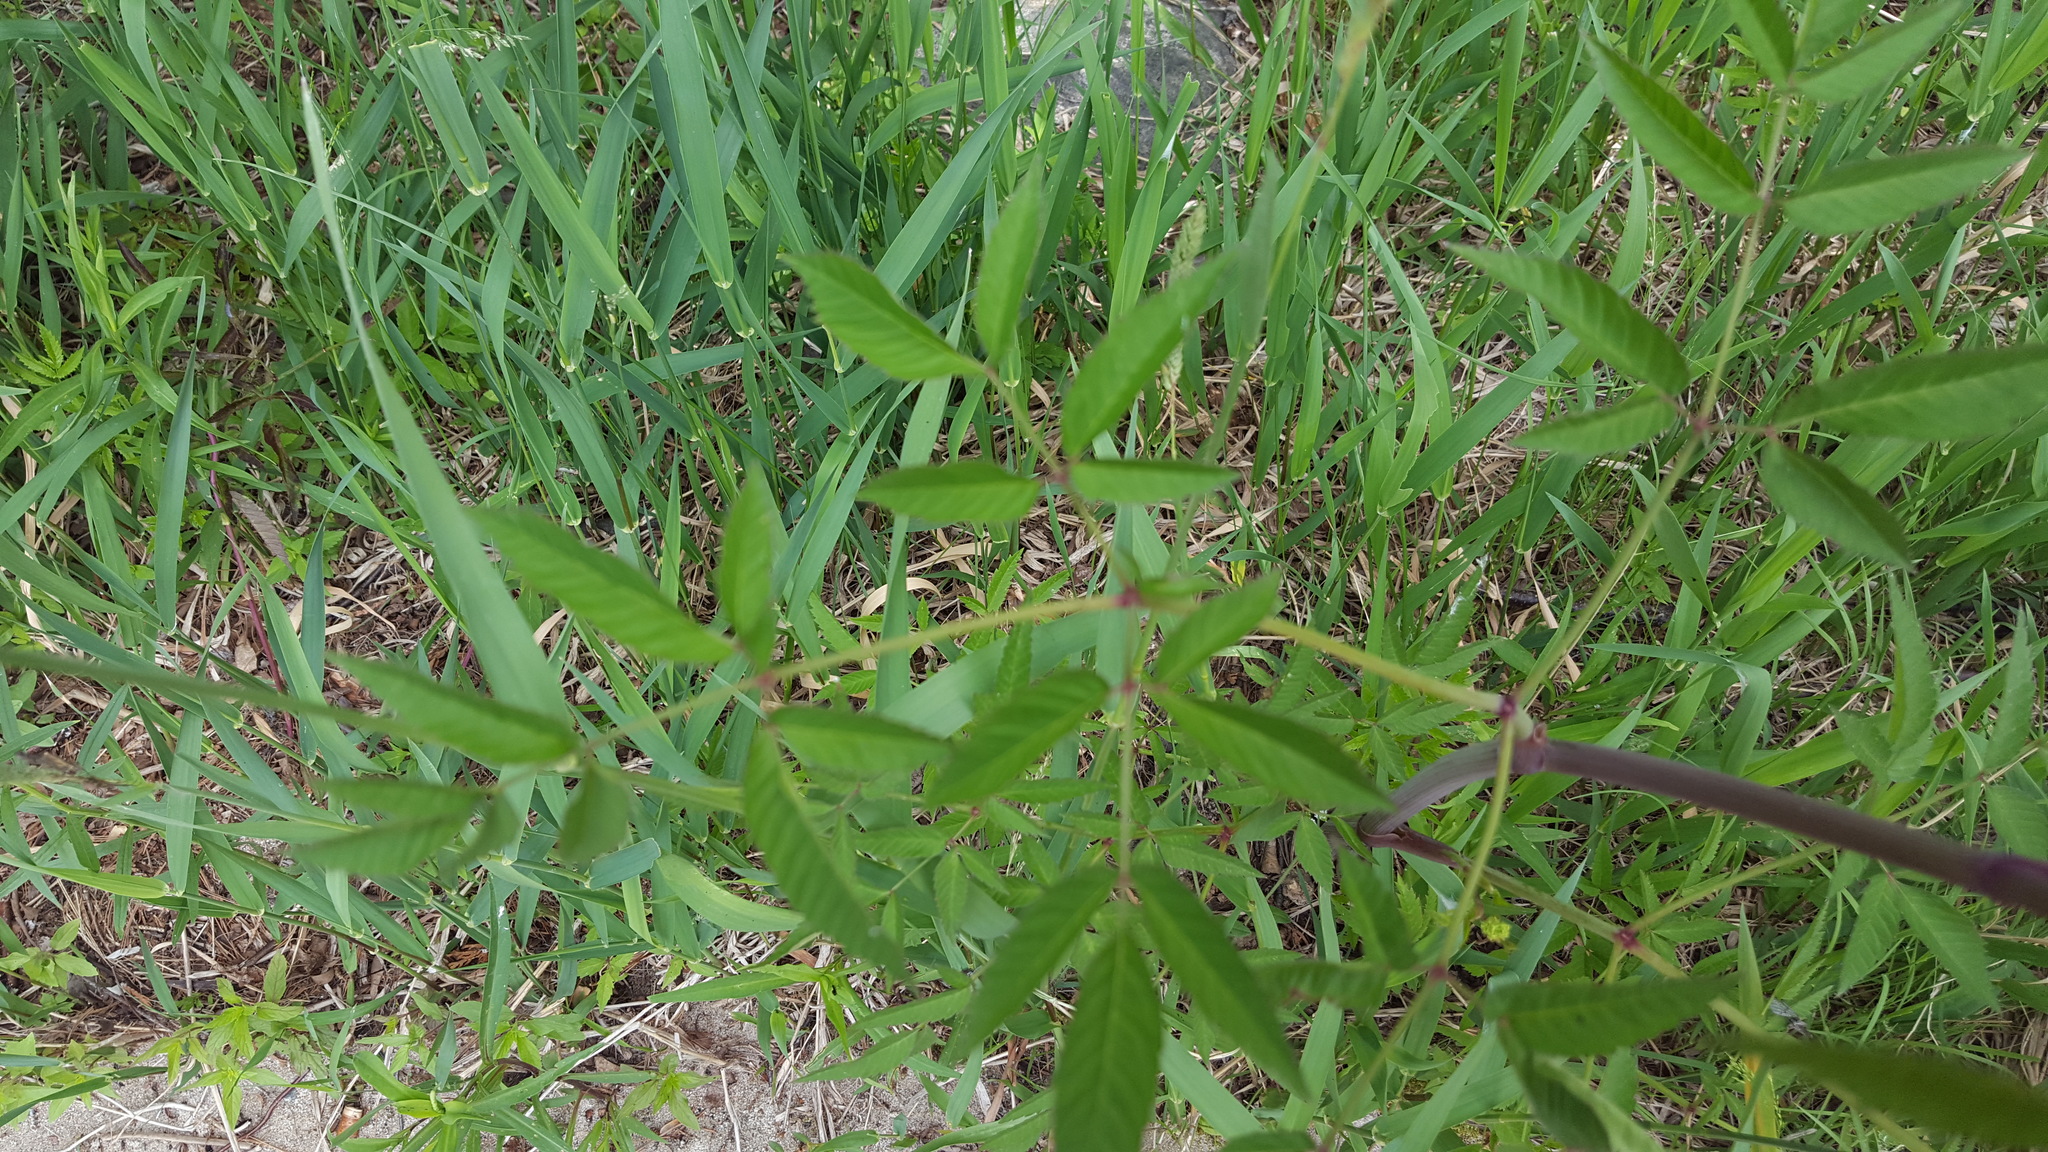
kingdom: Plantae
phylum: Tracheophyta
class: Magnoliopsida
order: Apiales
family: Apiaceae
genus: Cicuta
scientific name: Cicuta maculata
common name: Spotted cowbane
